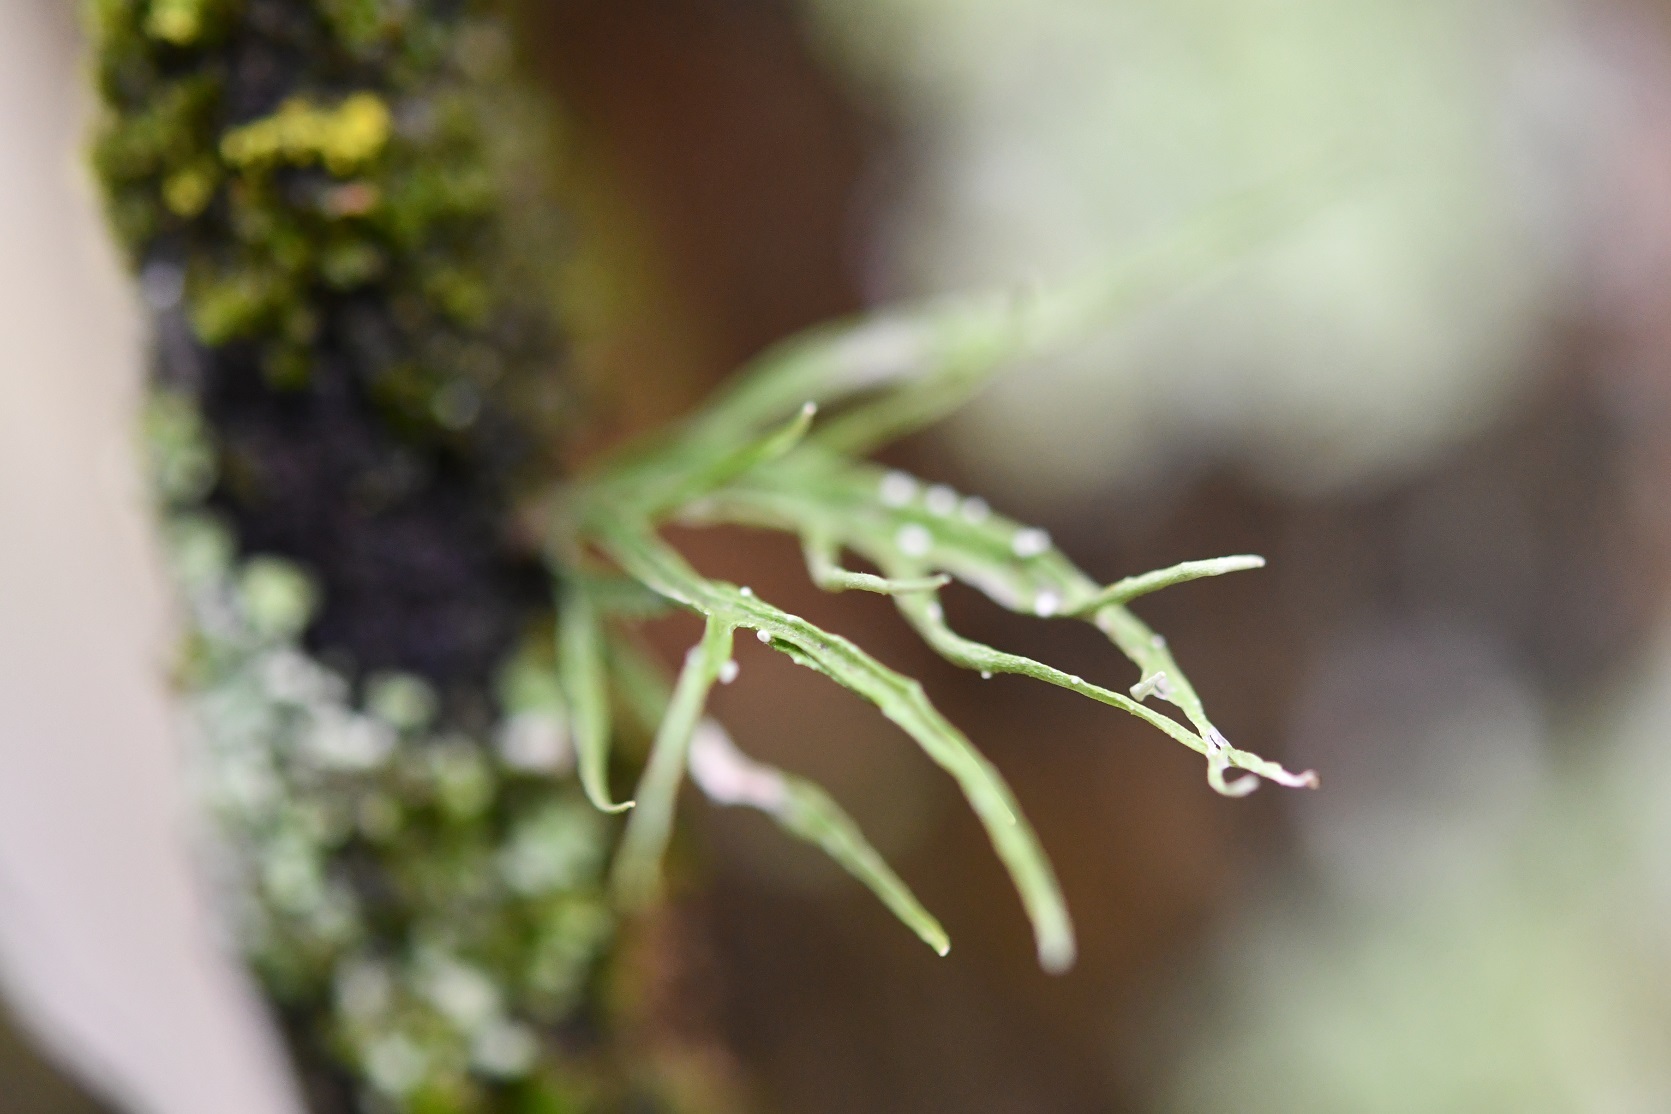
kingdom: Fungi
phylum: Ascomycota
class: Lecanoromycetes
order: Lecanorales
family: Ramalinaceae
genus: Ramalina
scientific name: Ramalina celastri
